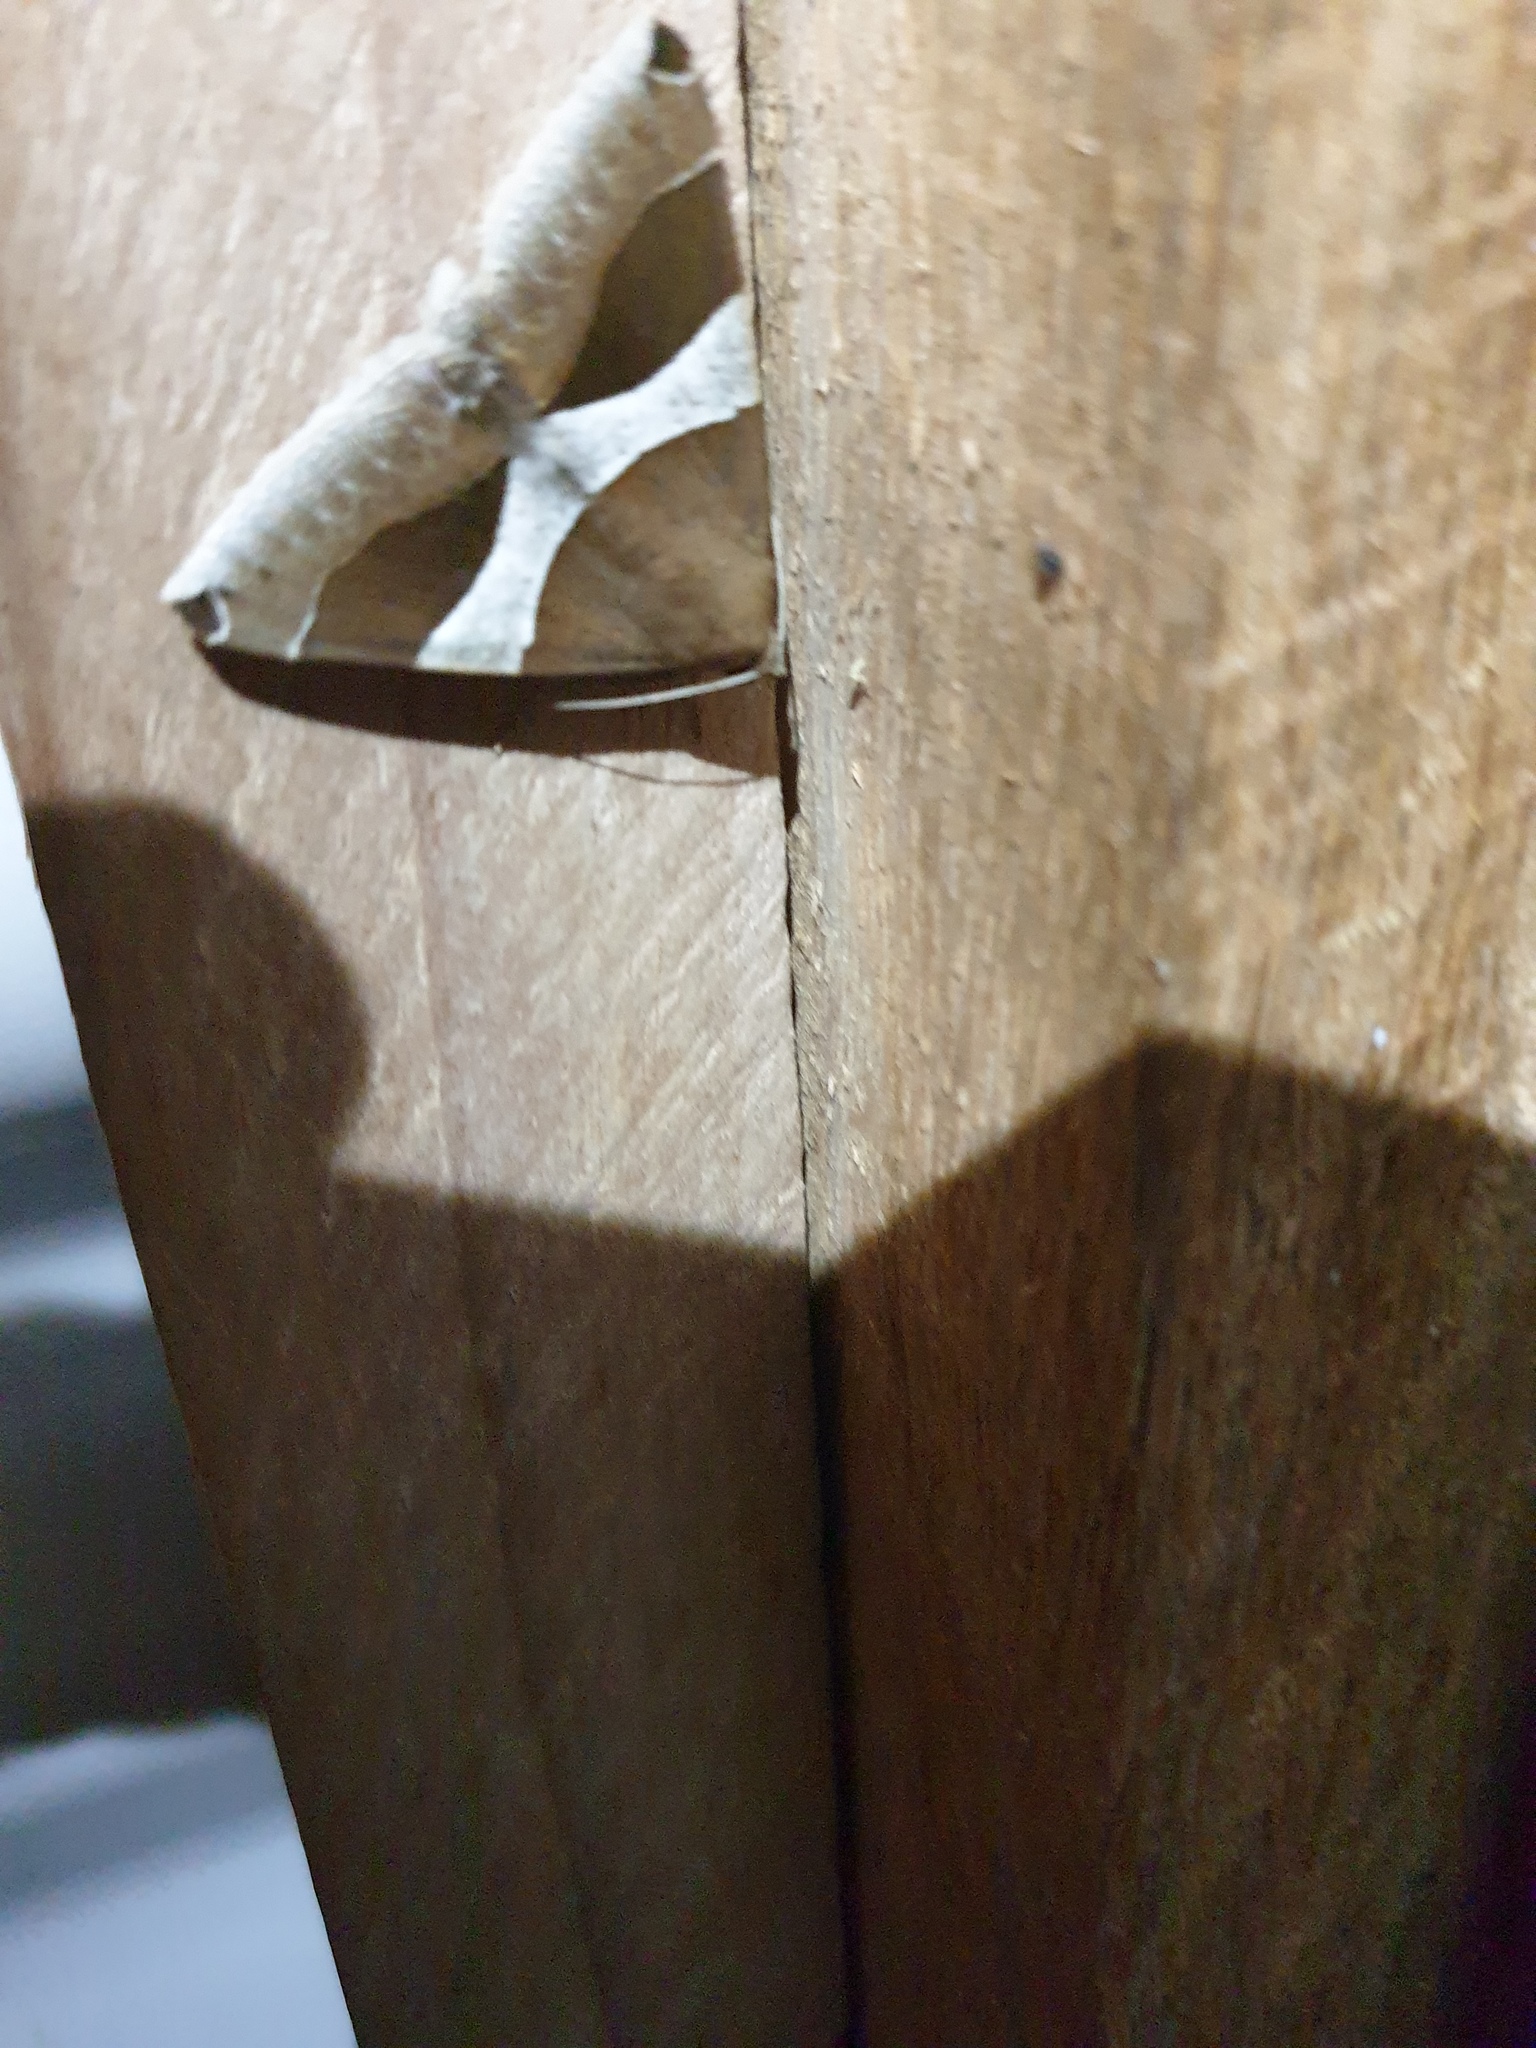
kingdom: Animalia
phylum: Arthropoda
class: Insecta
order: Lepidoptera
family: Erebidae
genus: Dysgonia
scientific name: Dysgonia constricta
